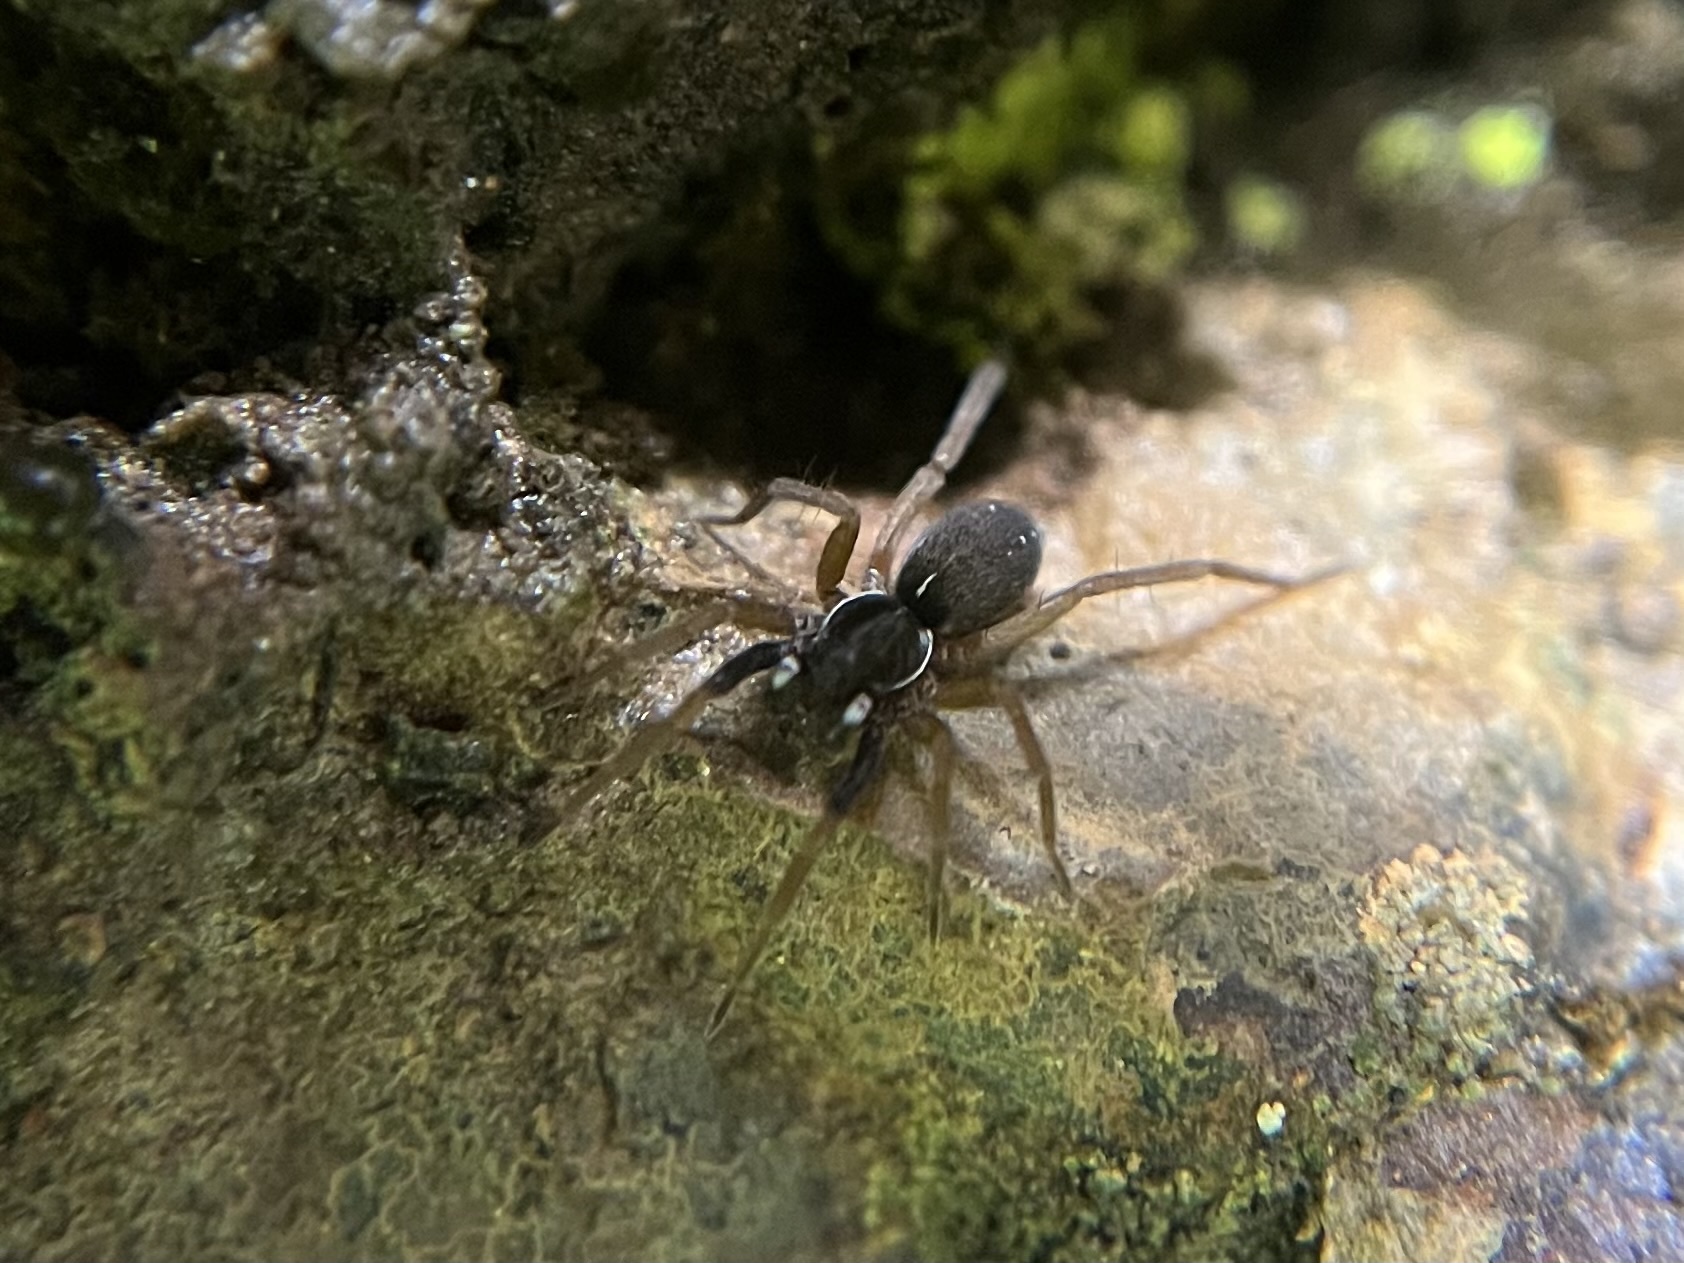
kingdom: Animalia
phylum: Arthropoda
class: Arachnida
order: Araneae
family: Lycosidae
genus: Aulonia
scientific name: Aulonia albimana
